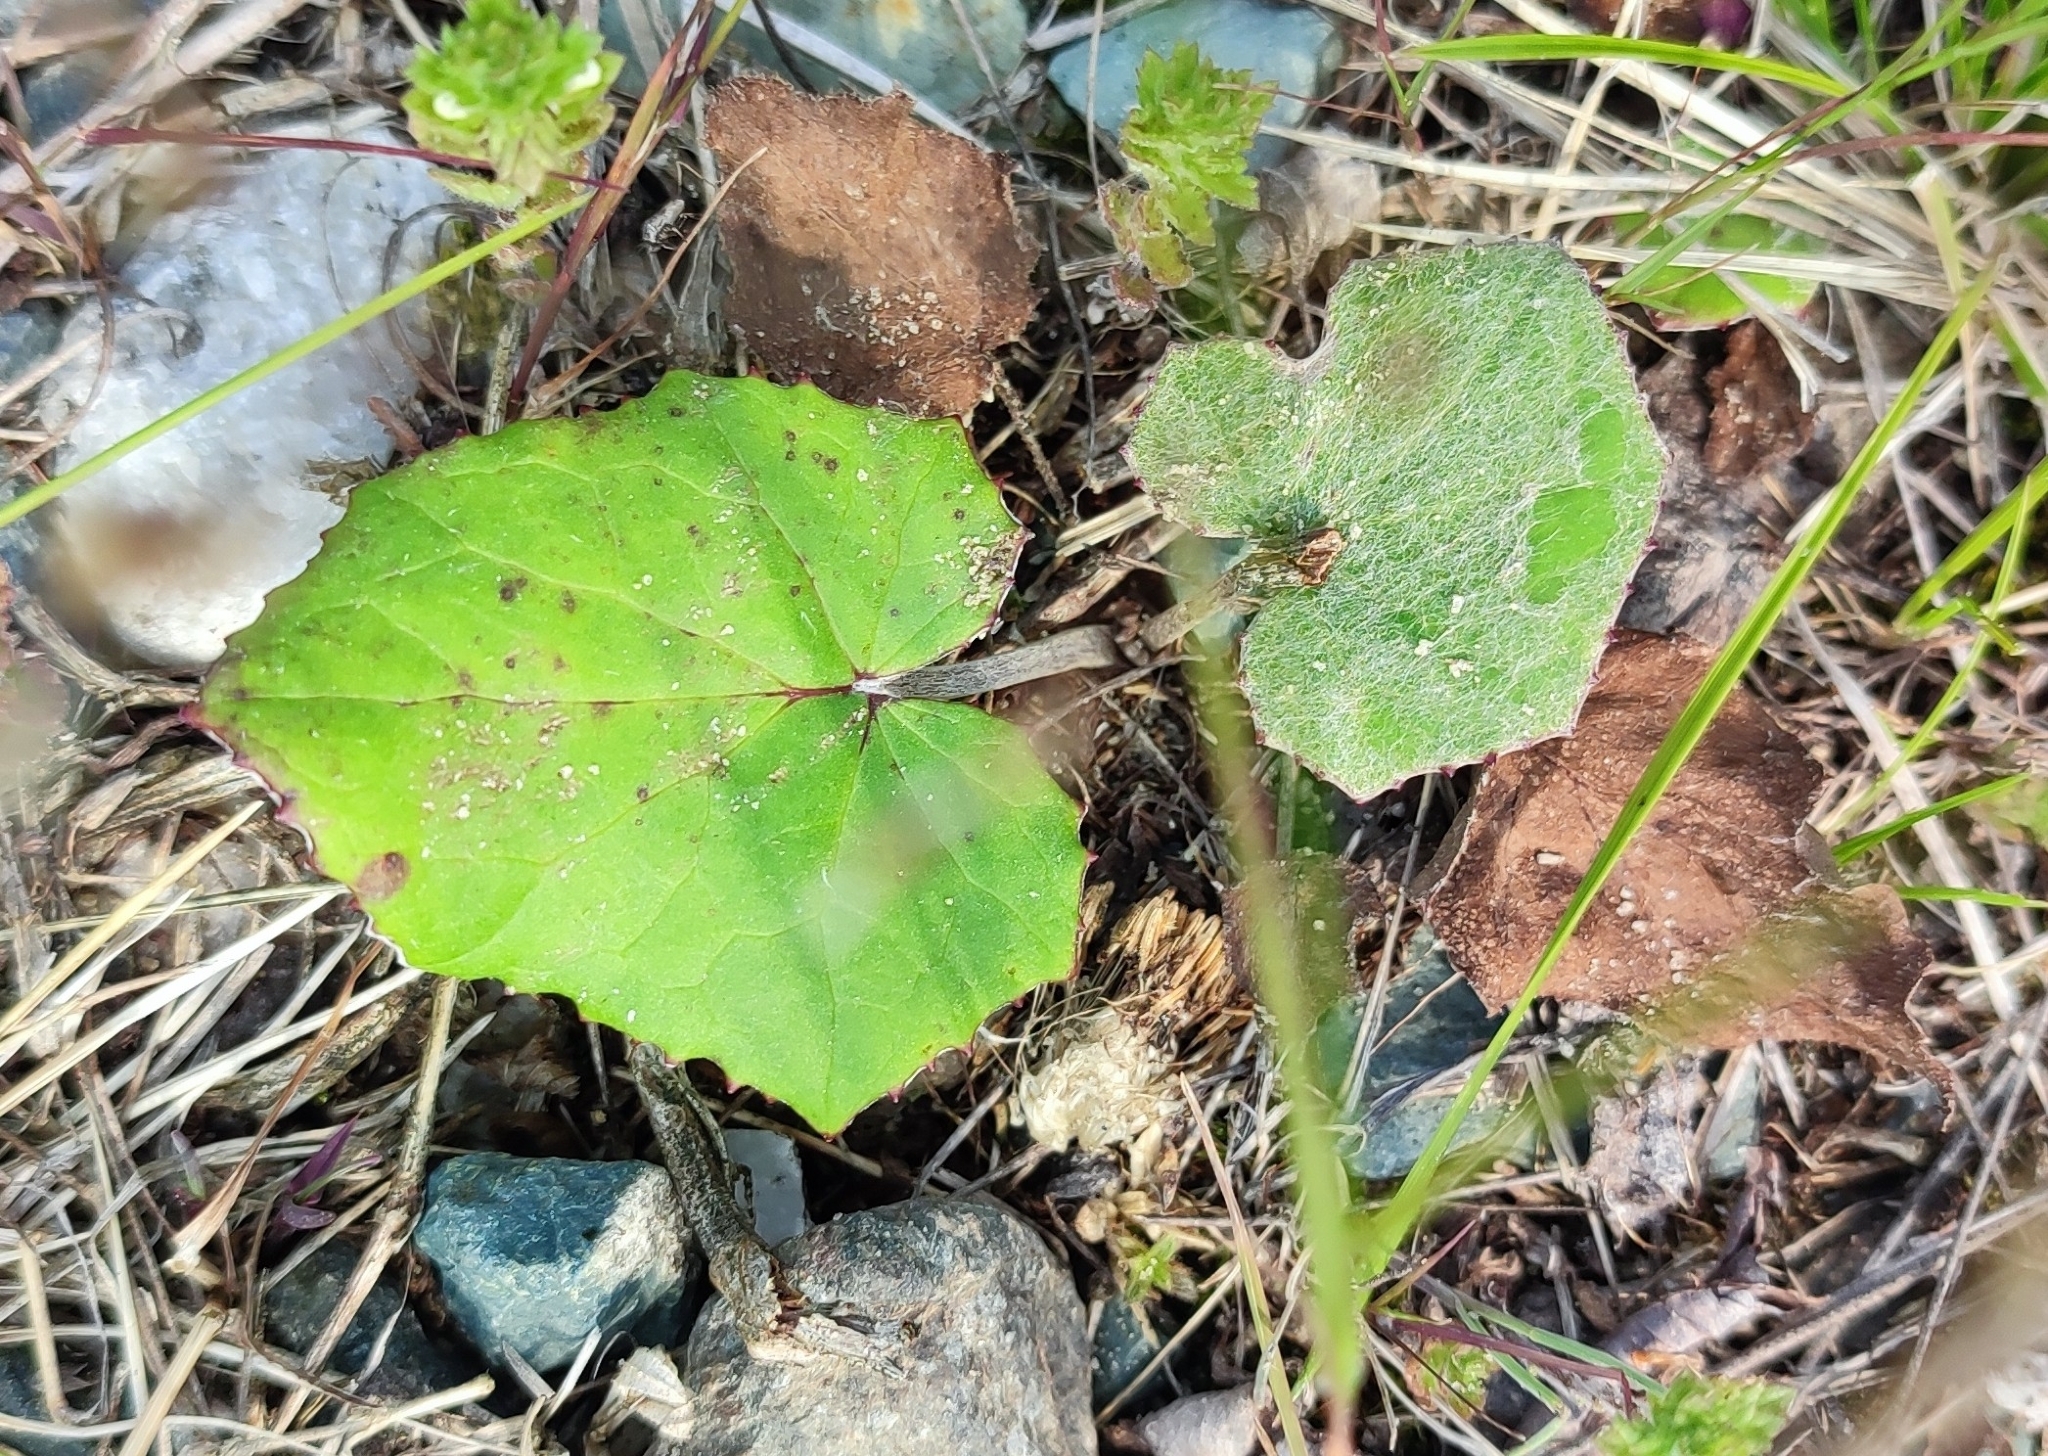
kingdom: Plantae
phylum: Tracheophyta
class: Magnoliopsida
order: Asterales
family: Asteraceae
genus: Tussilago
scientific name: Tussilago farfara
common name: Coltsfoot
